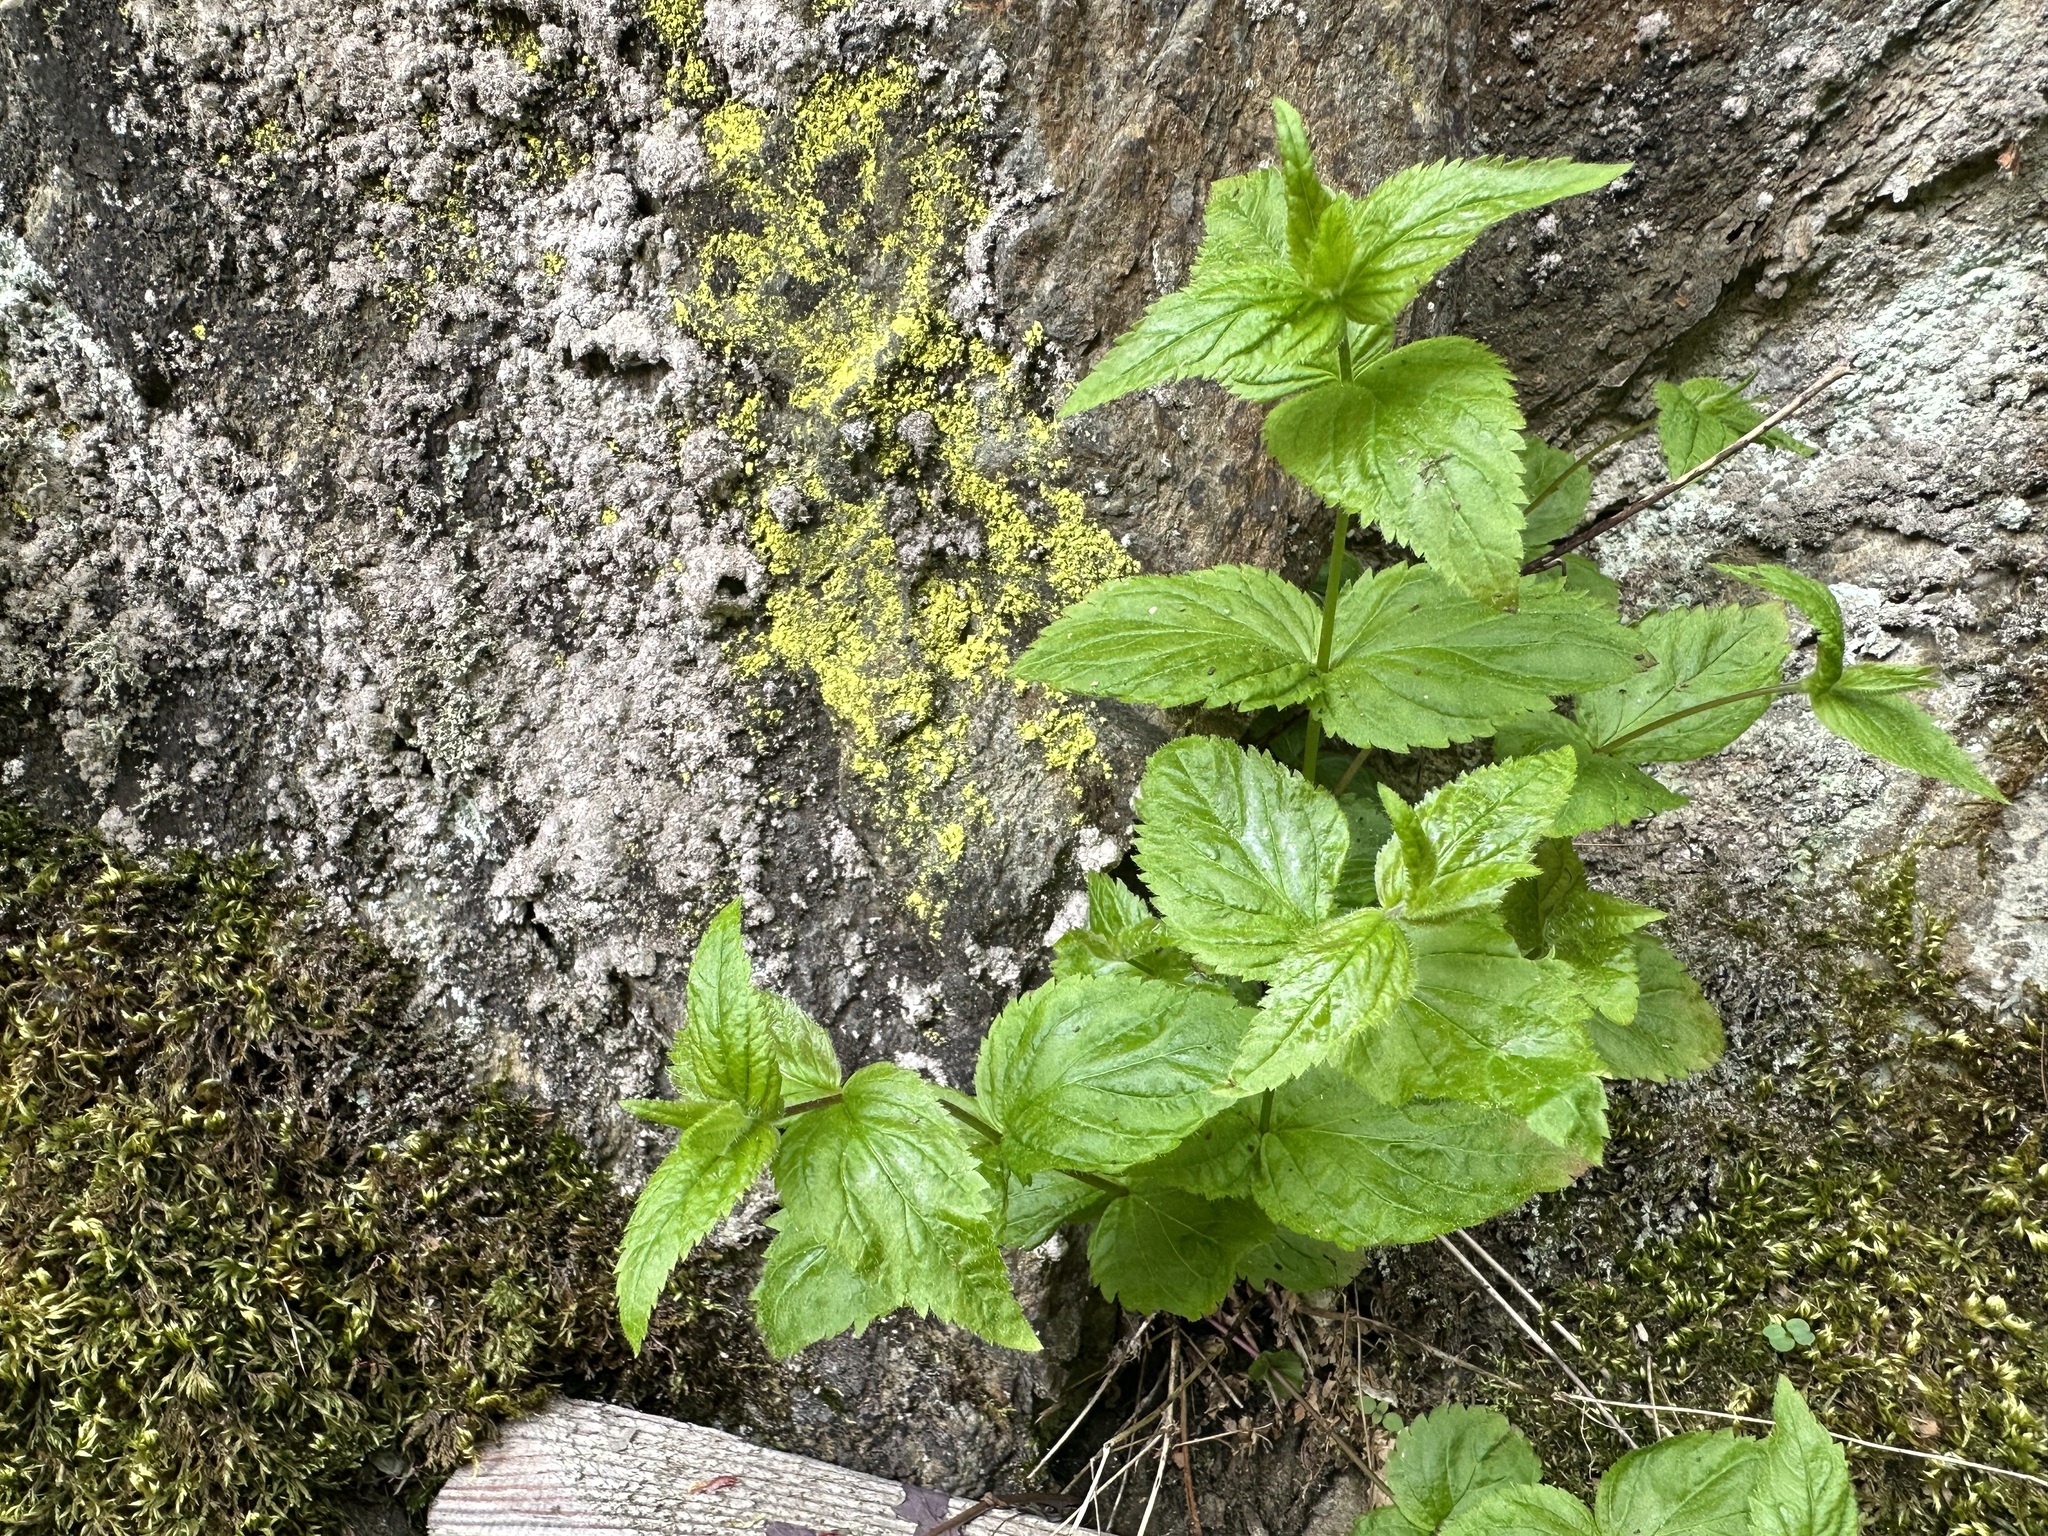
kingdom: Plantae
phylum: Tracheophyta
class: Magnoliopsida
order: Lamiales
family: Plantaginaceae
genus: Veronica
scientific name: Veronica urticifolia
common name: Nettle-leaf speedwell
